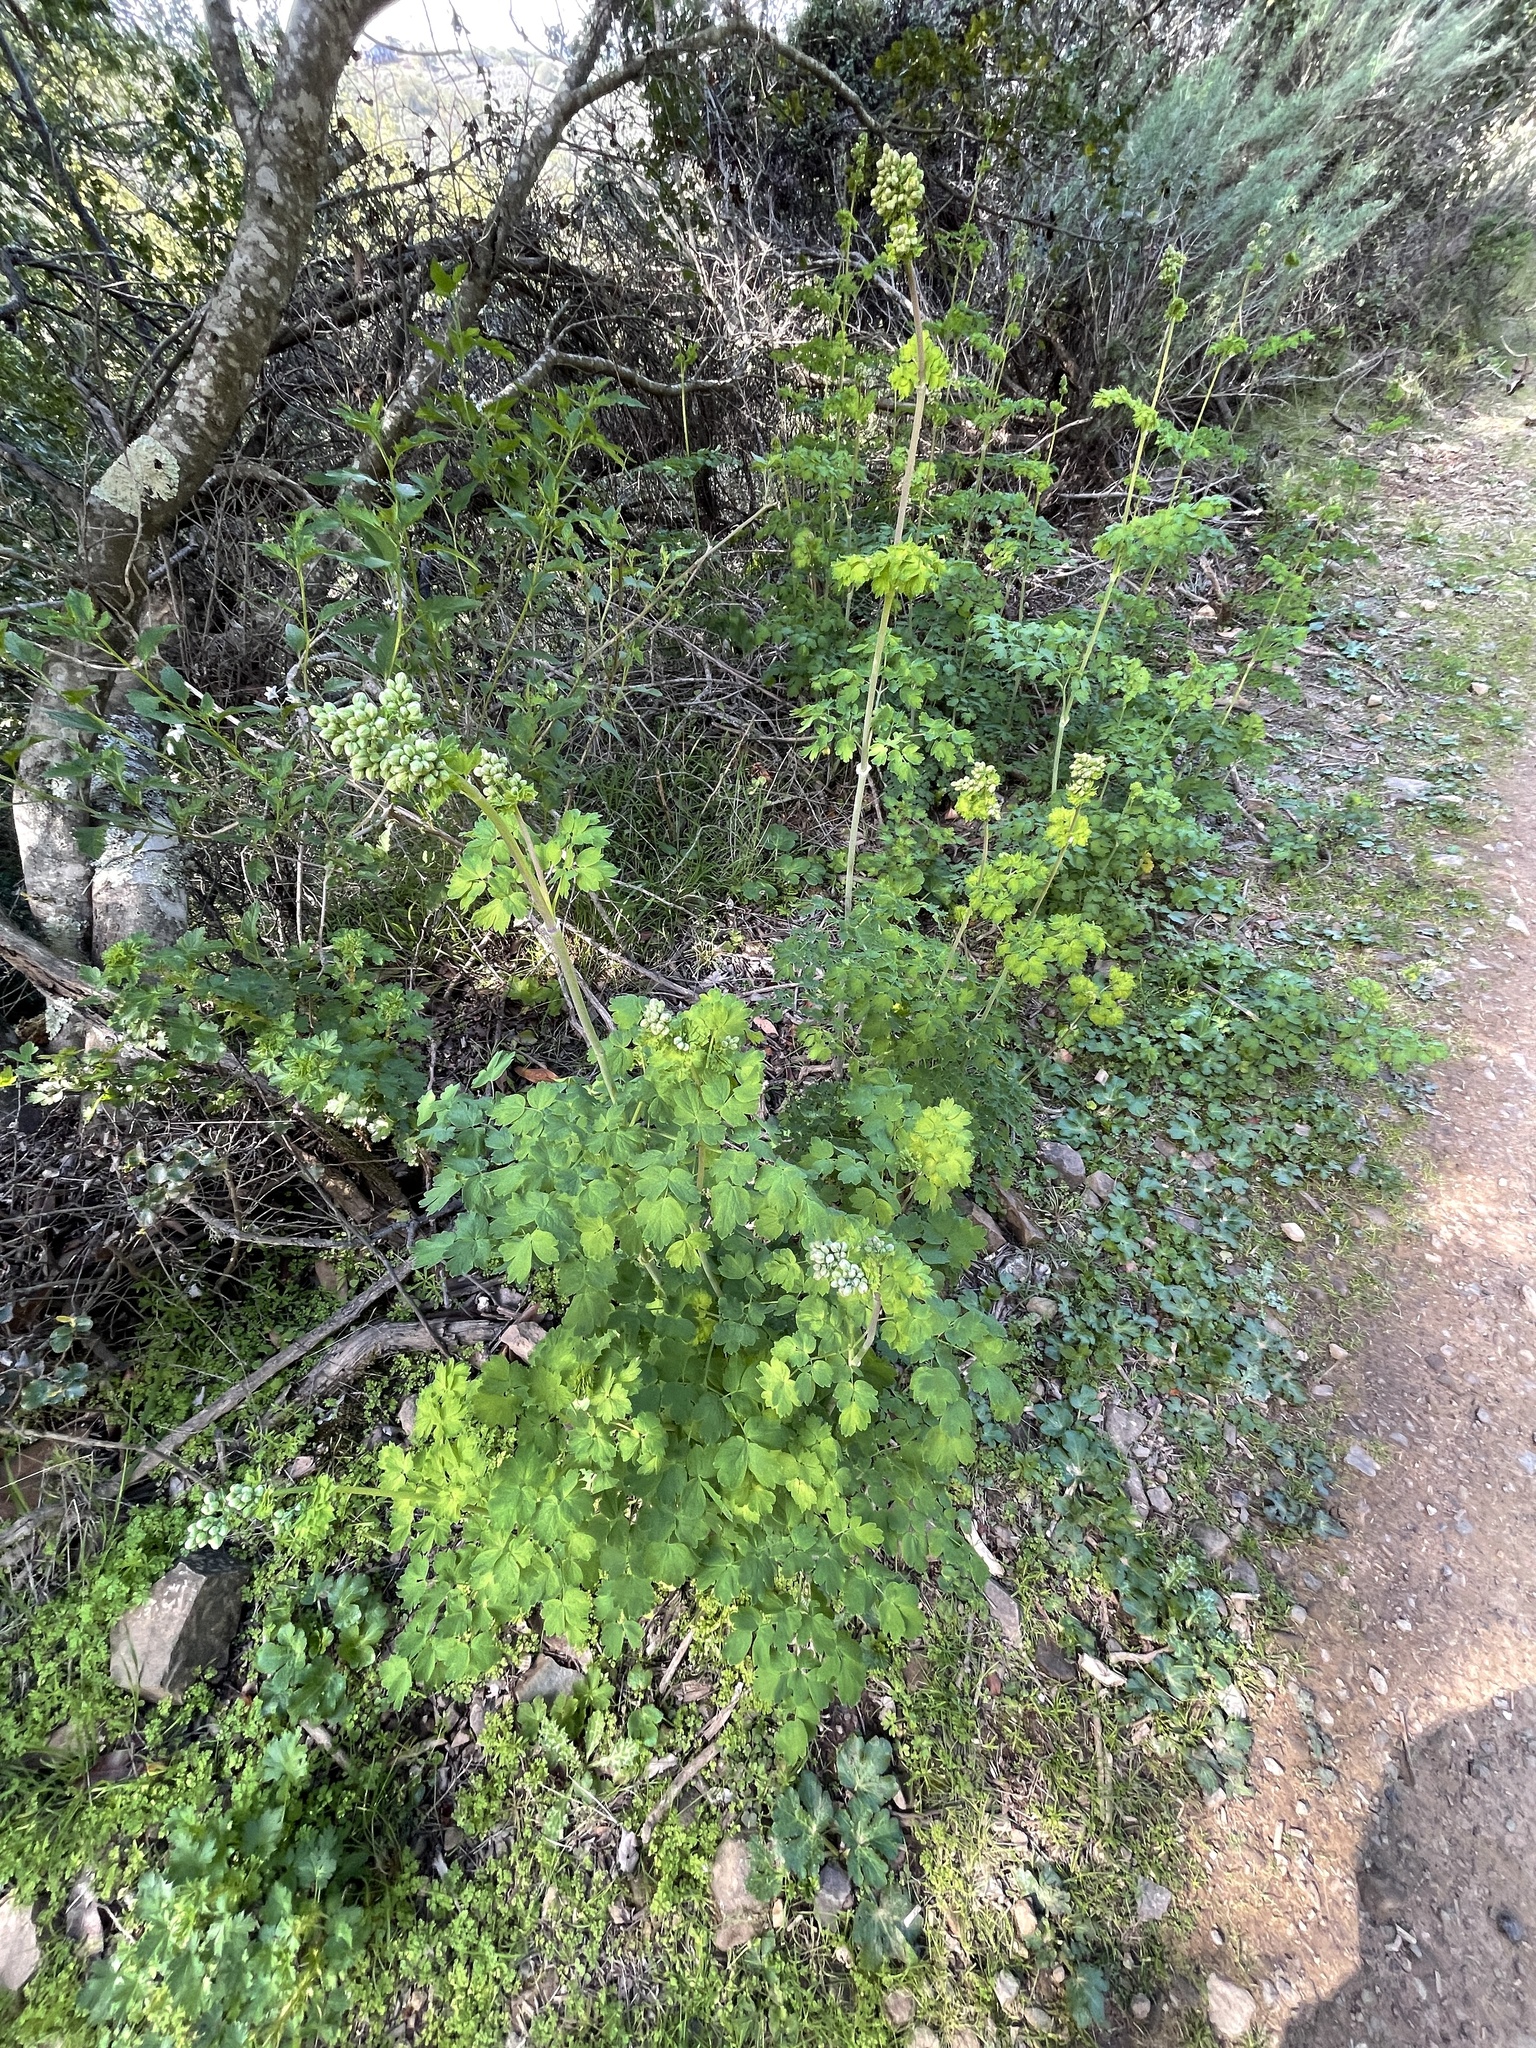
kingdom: Plantae
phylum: Tracheophyta
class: Magnoliopsida
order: Ranunculales
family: Ranunculaceae
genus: Thalictrum
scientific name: Thalictrum fendleri
